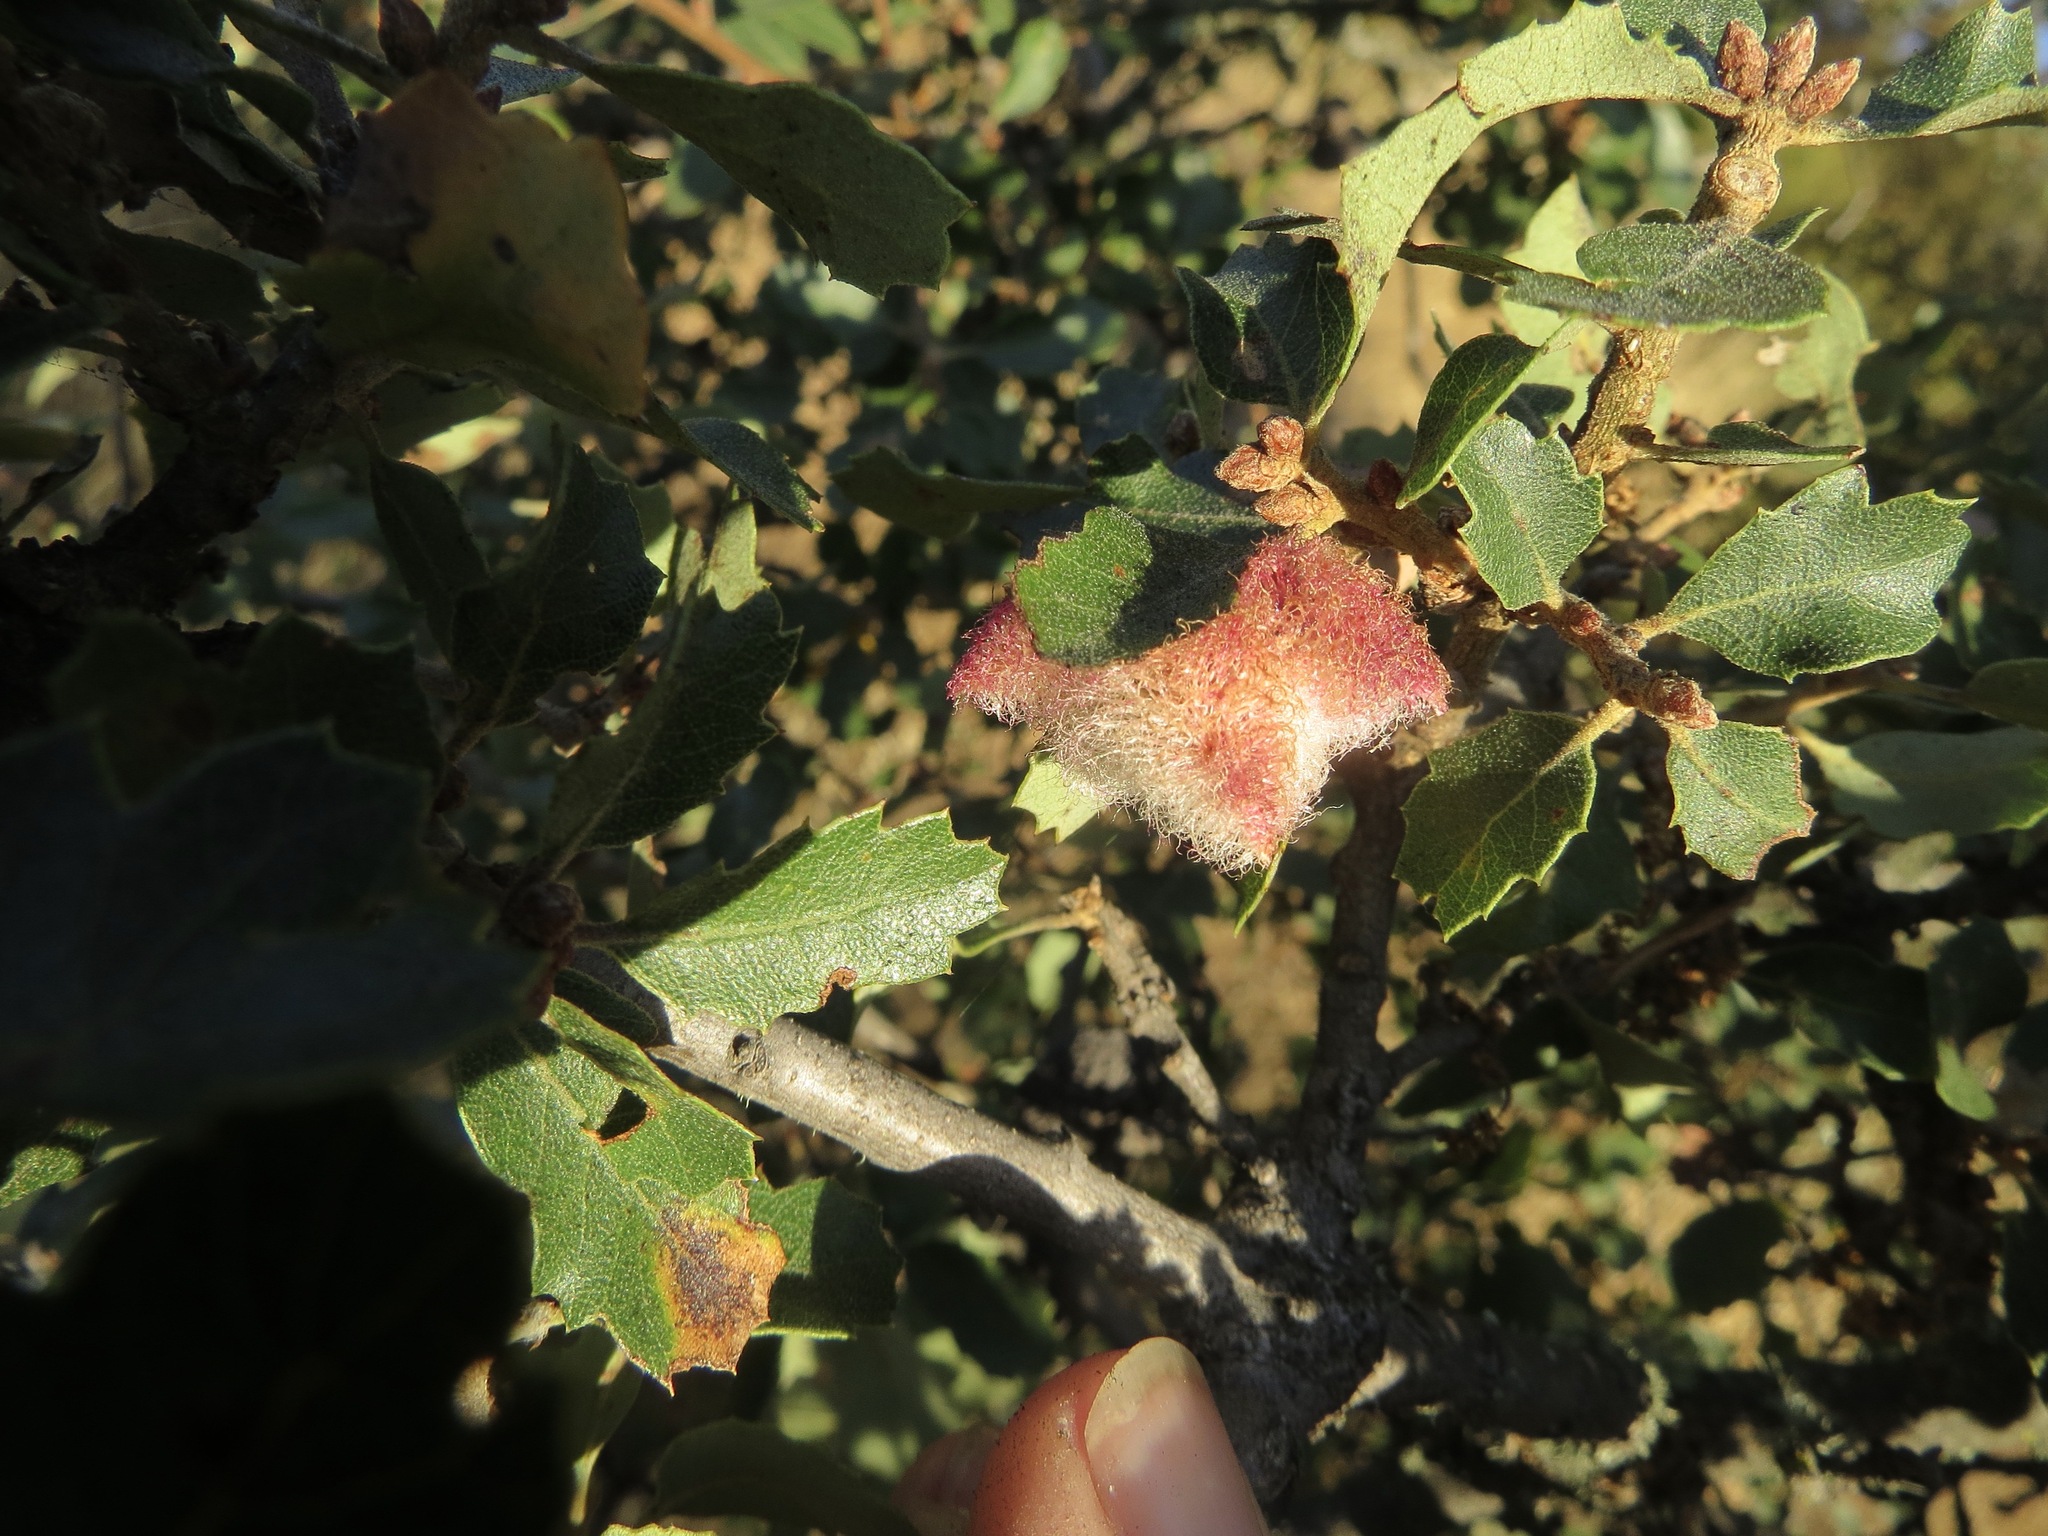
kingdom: Animalia
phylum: Arthropoda
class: Insecta
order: Hymenoptera
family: Cynipidae
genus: Andricus
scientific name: Andricus
